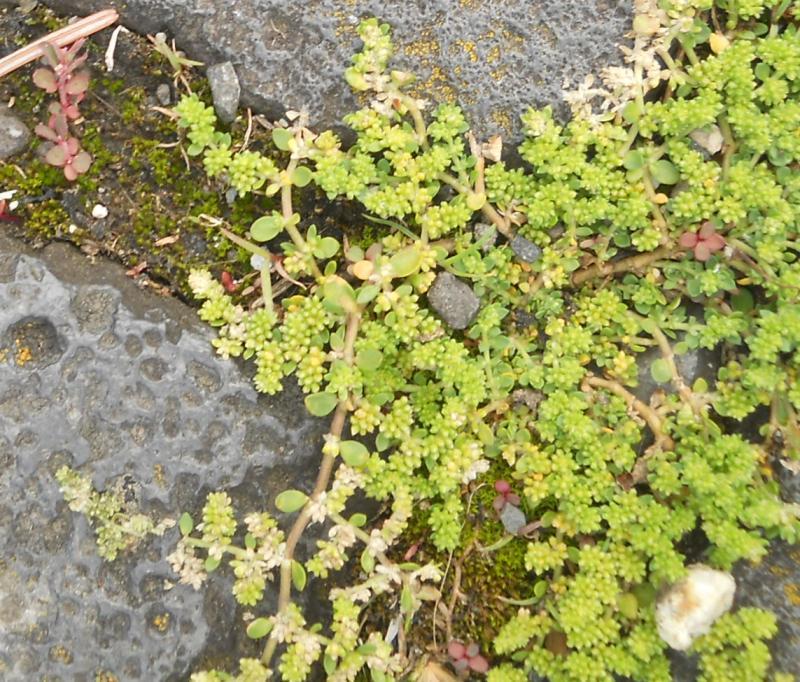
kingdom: Plantae
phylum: Tracheophyta
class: Magnoliopsida
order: Caryophyllales
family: Caryophyllaceae
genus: Herniaria
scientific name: Herniaria glabra
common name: Smooth rupturewort
